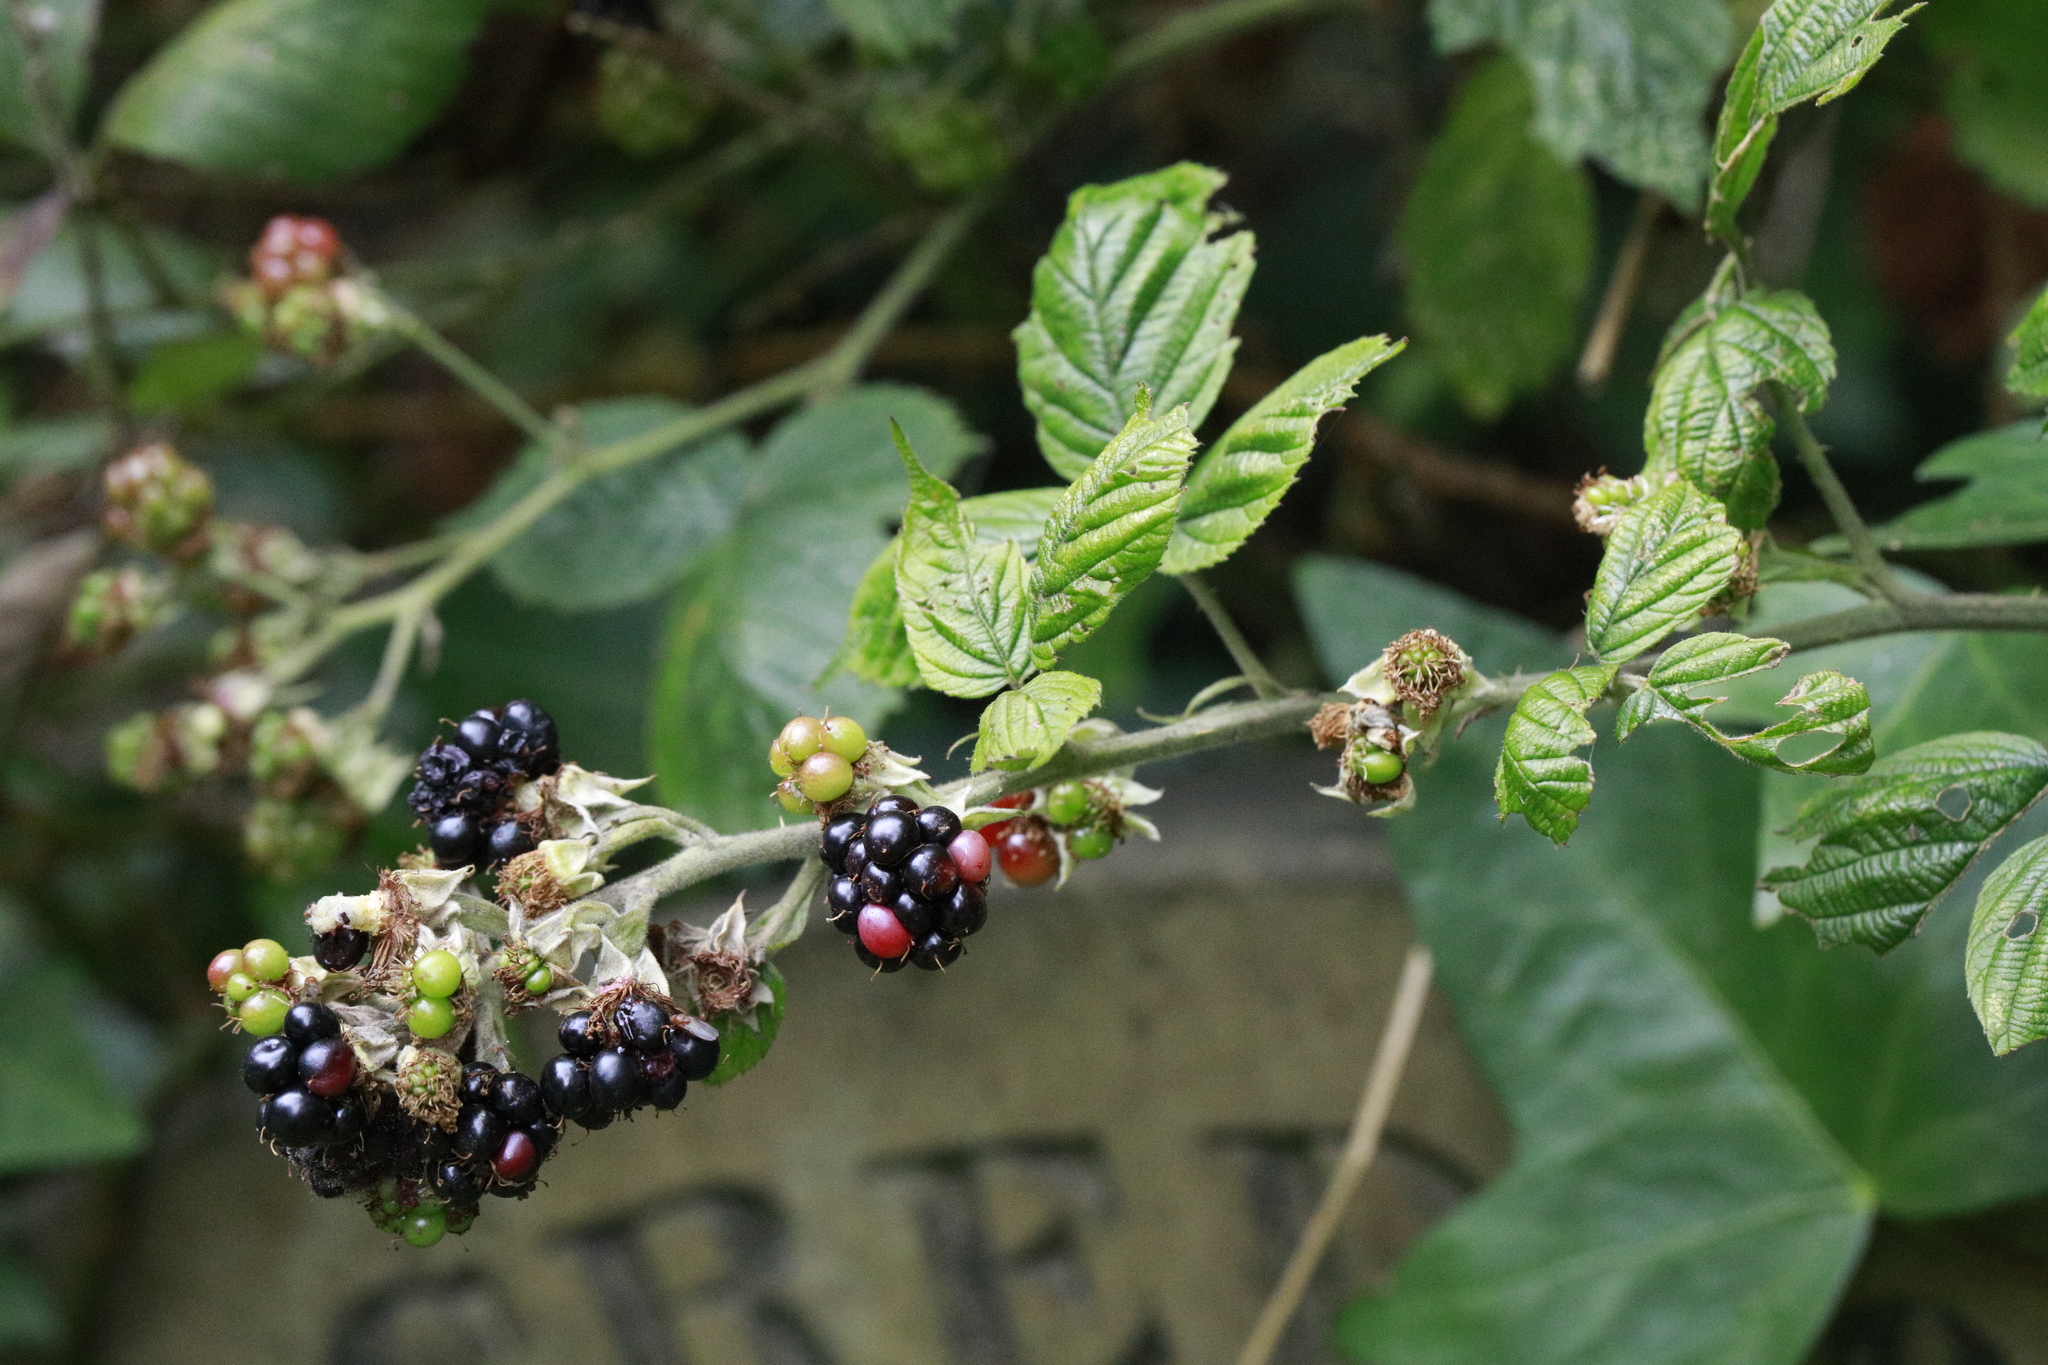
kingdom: Plantae
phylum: Tracheophyta
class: Magnoliopsida
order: Rosales
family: Rosaceae
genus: Rubus
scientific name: Rubus fruticosus
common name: Blackberry, bramble
